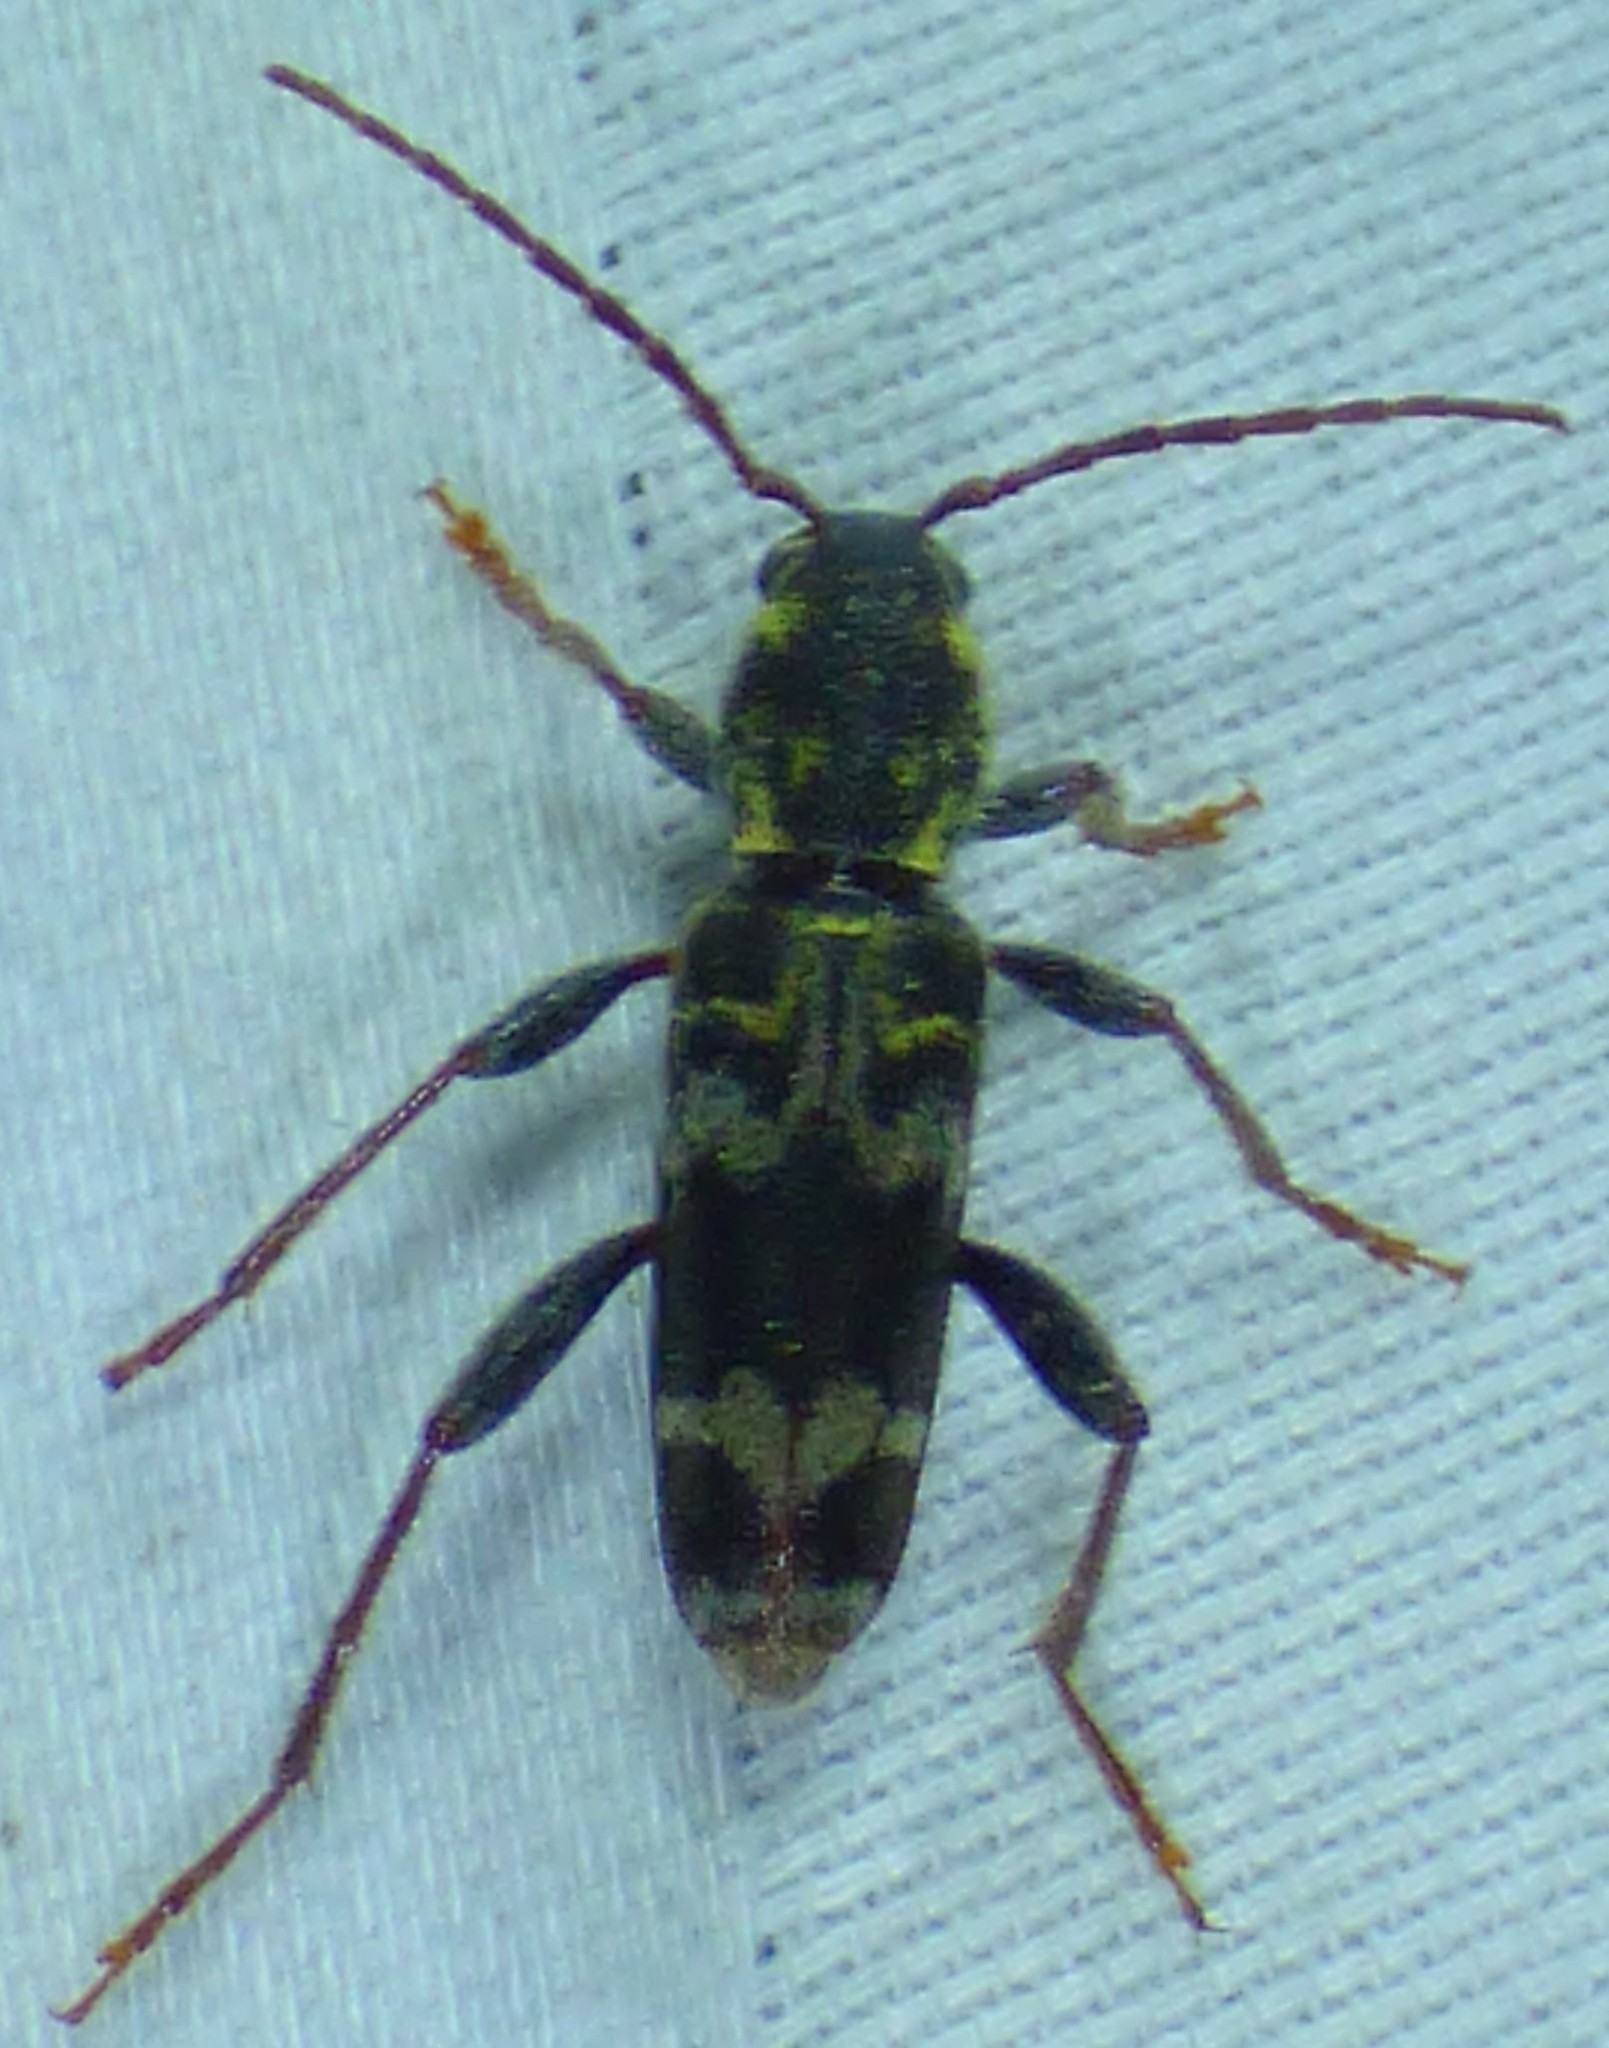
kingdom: Animalia
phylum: Arthropoda
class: Insecta
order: Coleoptera
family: Cerambycidae
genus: Xylotrechus
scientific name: Xylotrechus colonus
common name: Long-horned beetle
